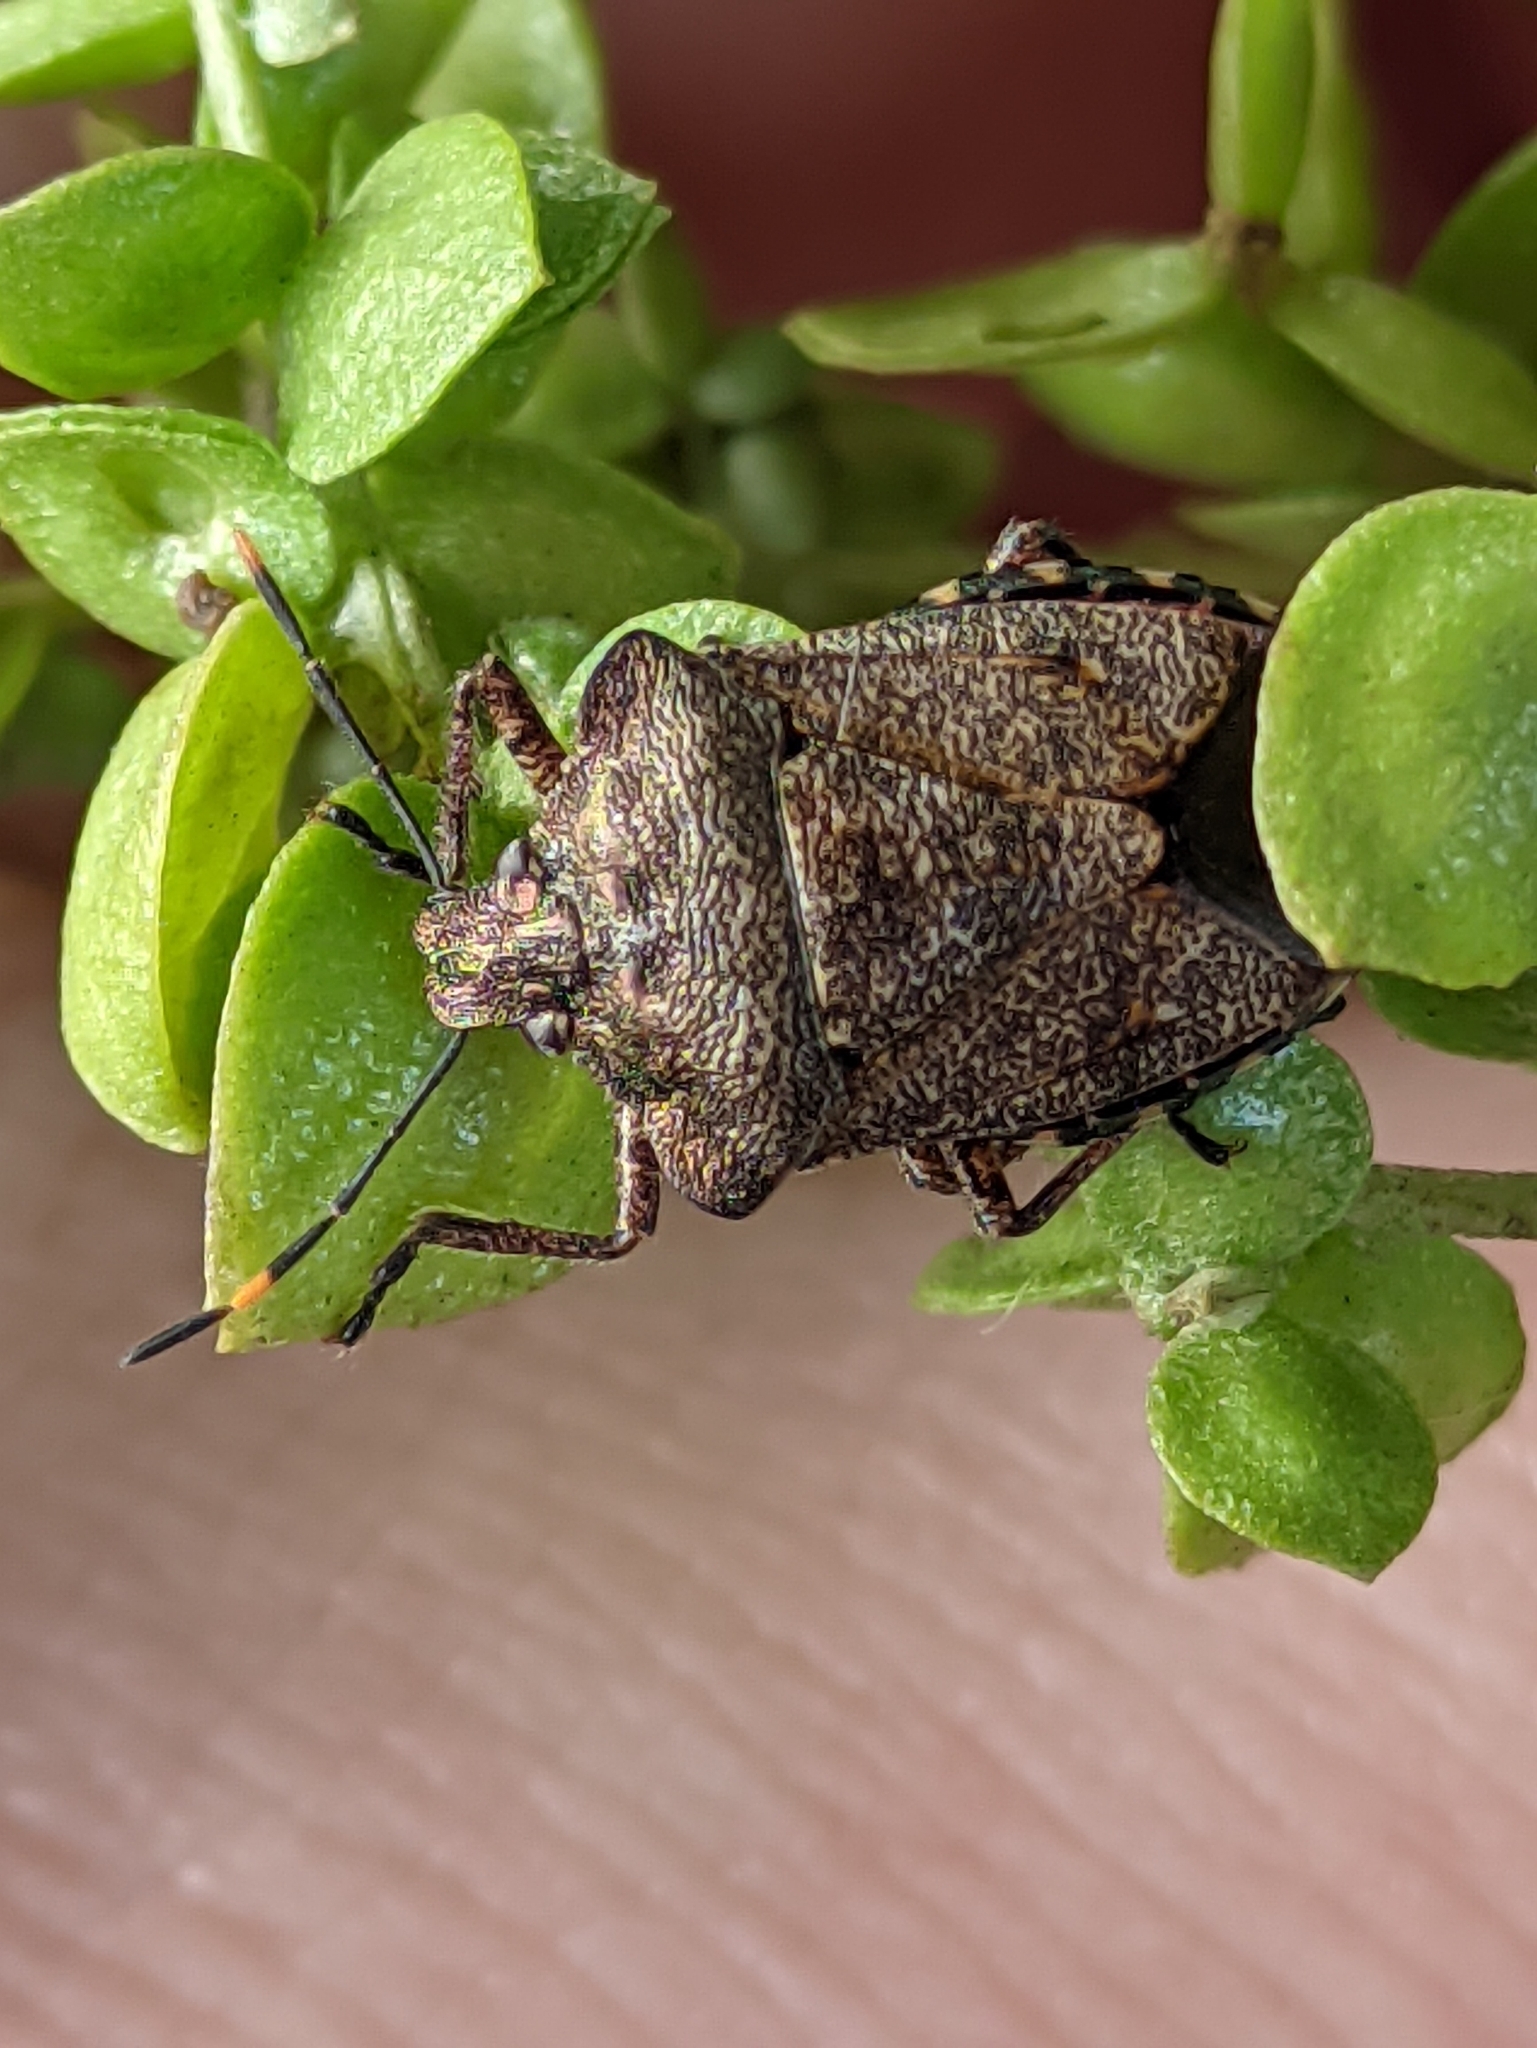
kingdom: Animalia
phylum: Arthropoda
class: Insecta
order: Hemiptera
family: Pentatomidae
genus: Troilus
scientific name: Troilus luridus
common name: Bronze shieldbug
